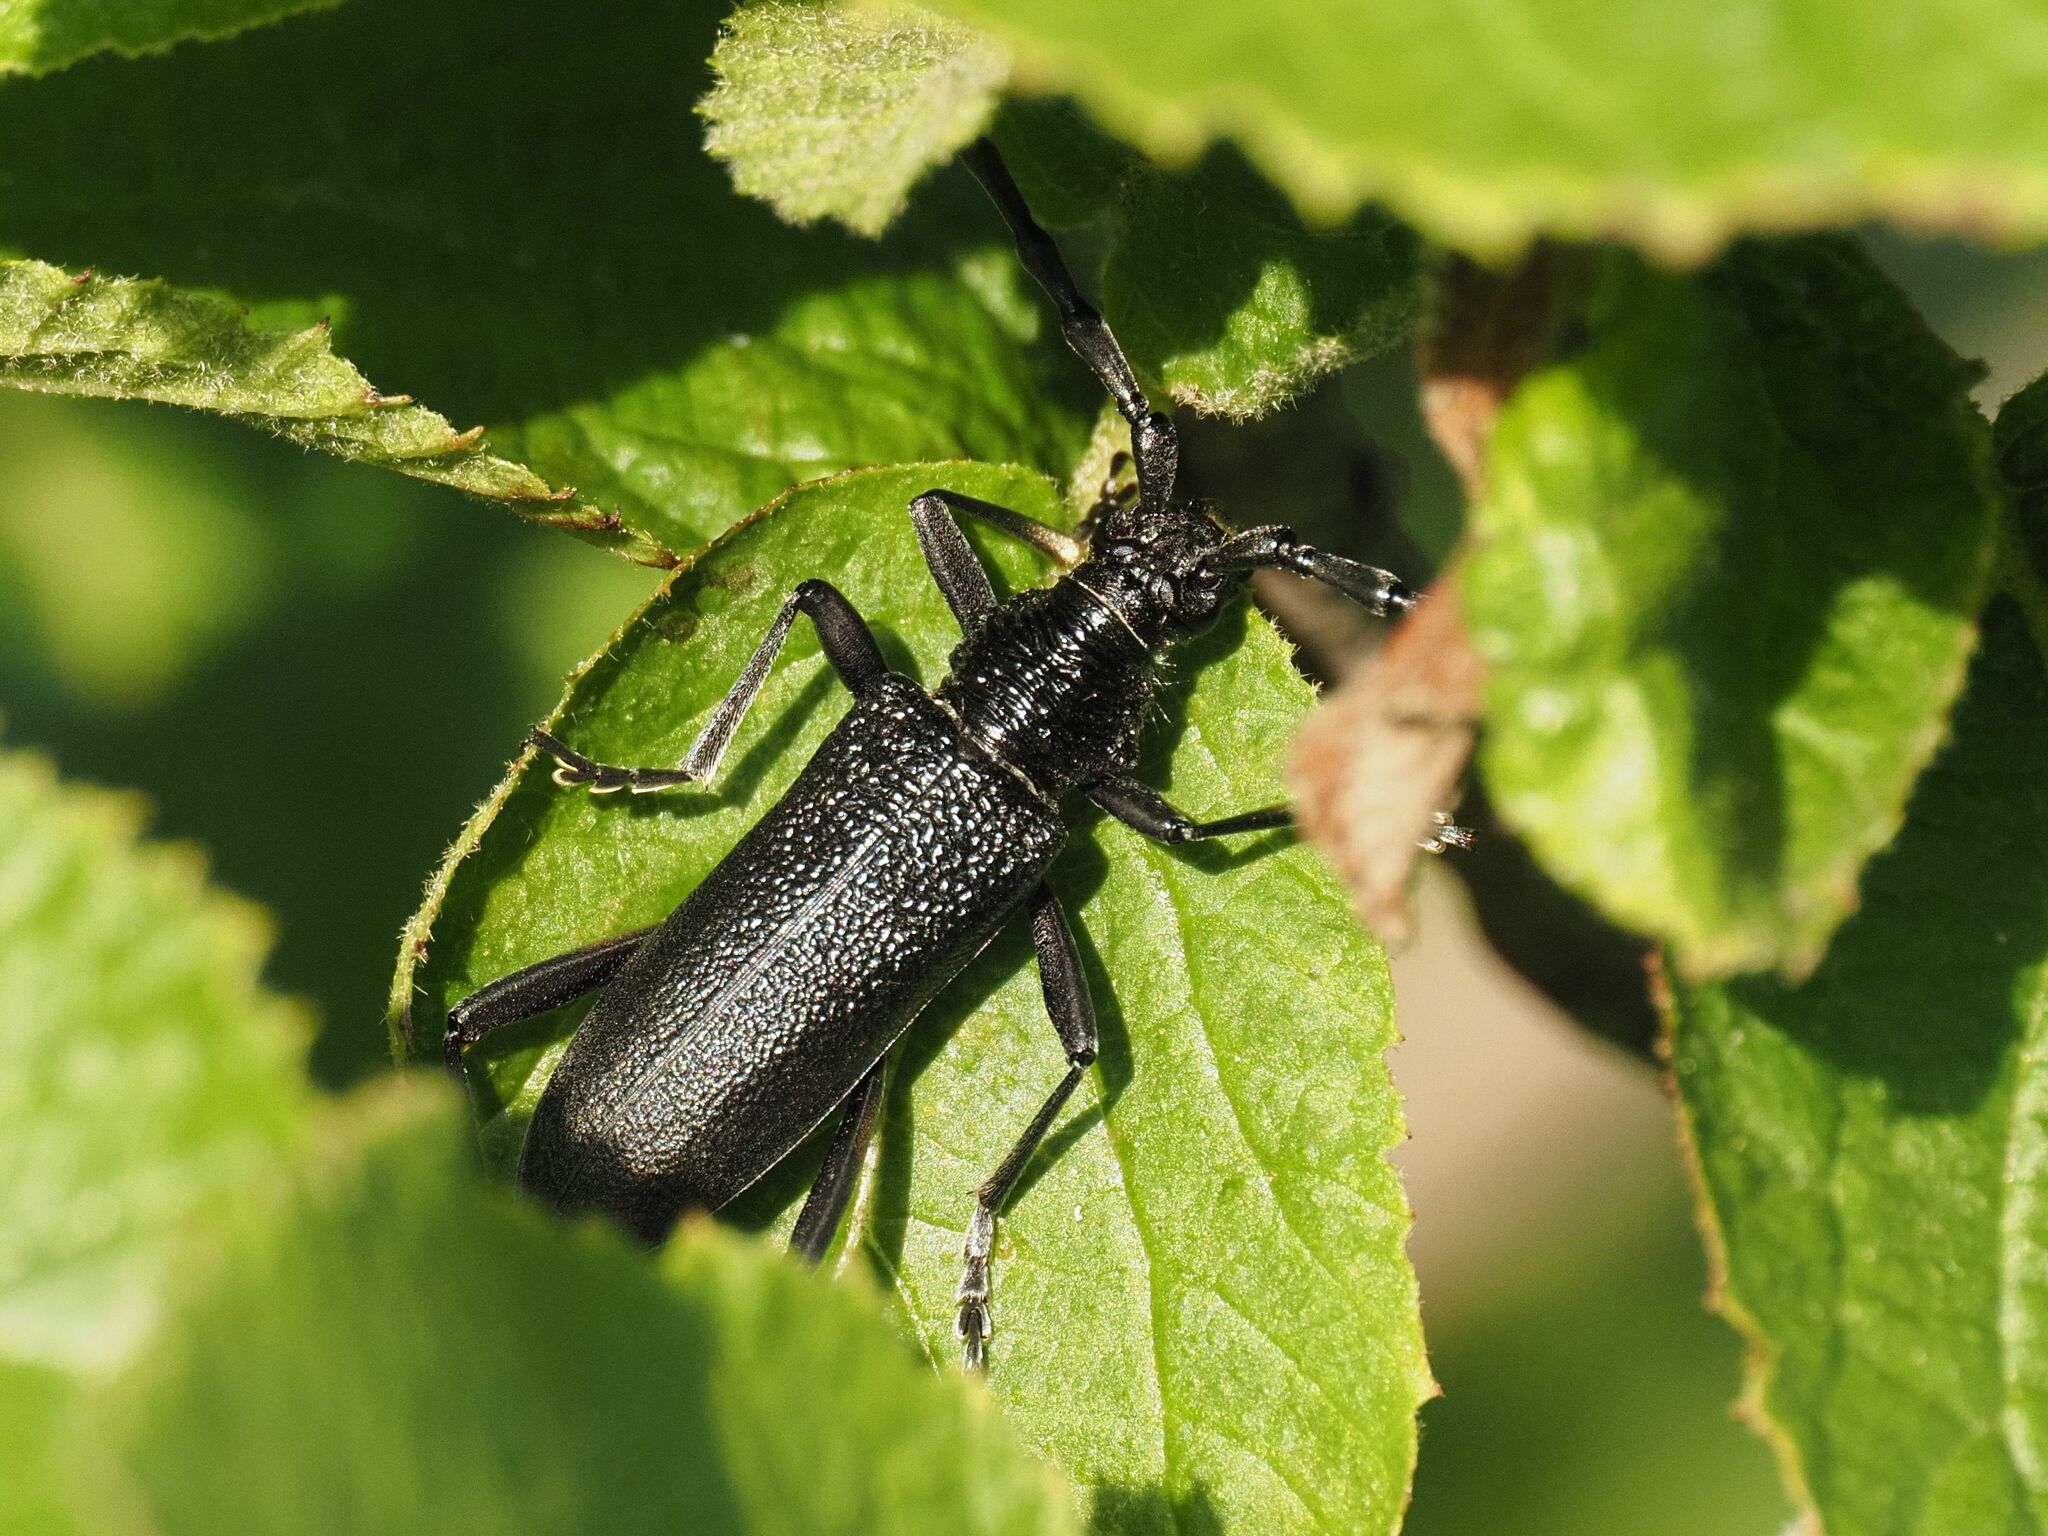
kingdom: Animalia
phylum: Arthropoda
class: Insecta
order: Coleoptera
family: Cerambycidae
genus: Cerambyx
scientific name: Cerambyx scopolii
